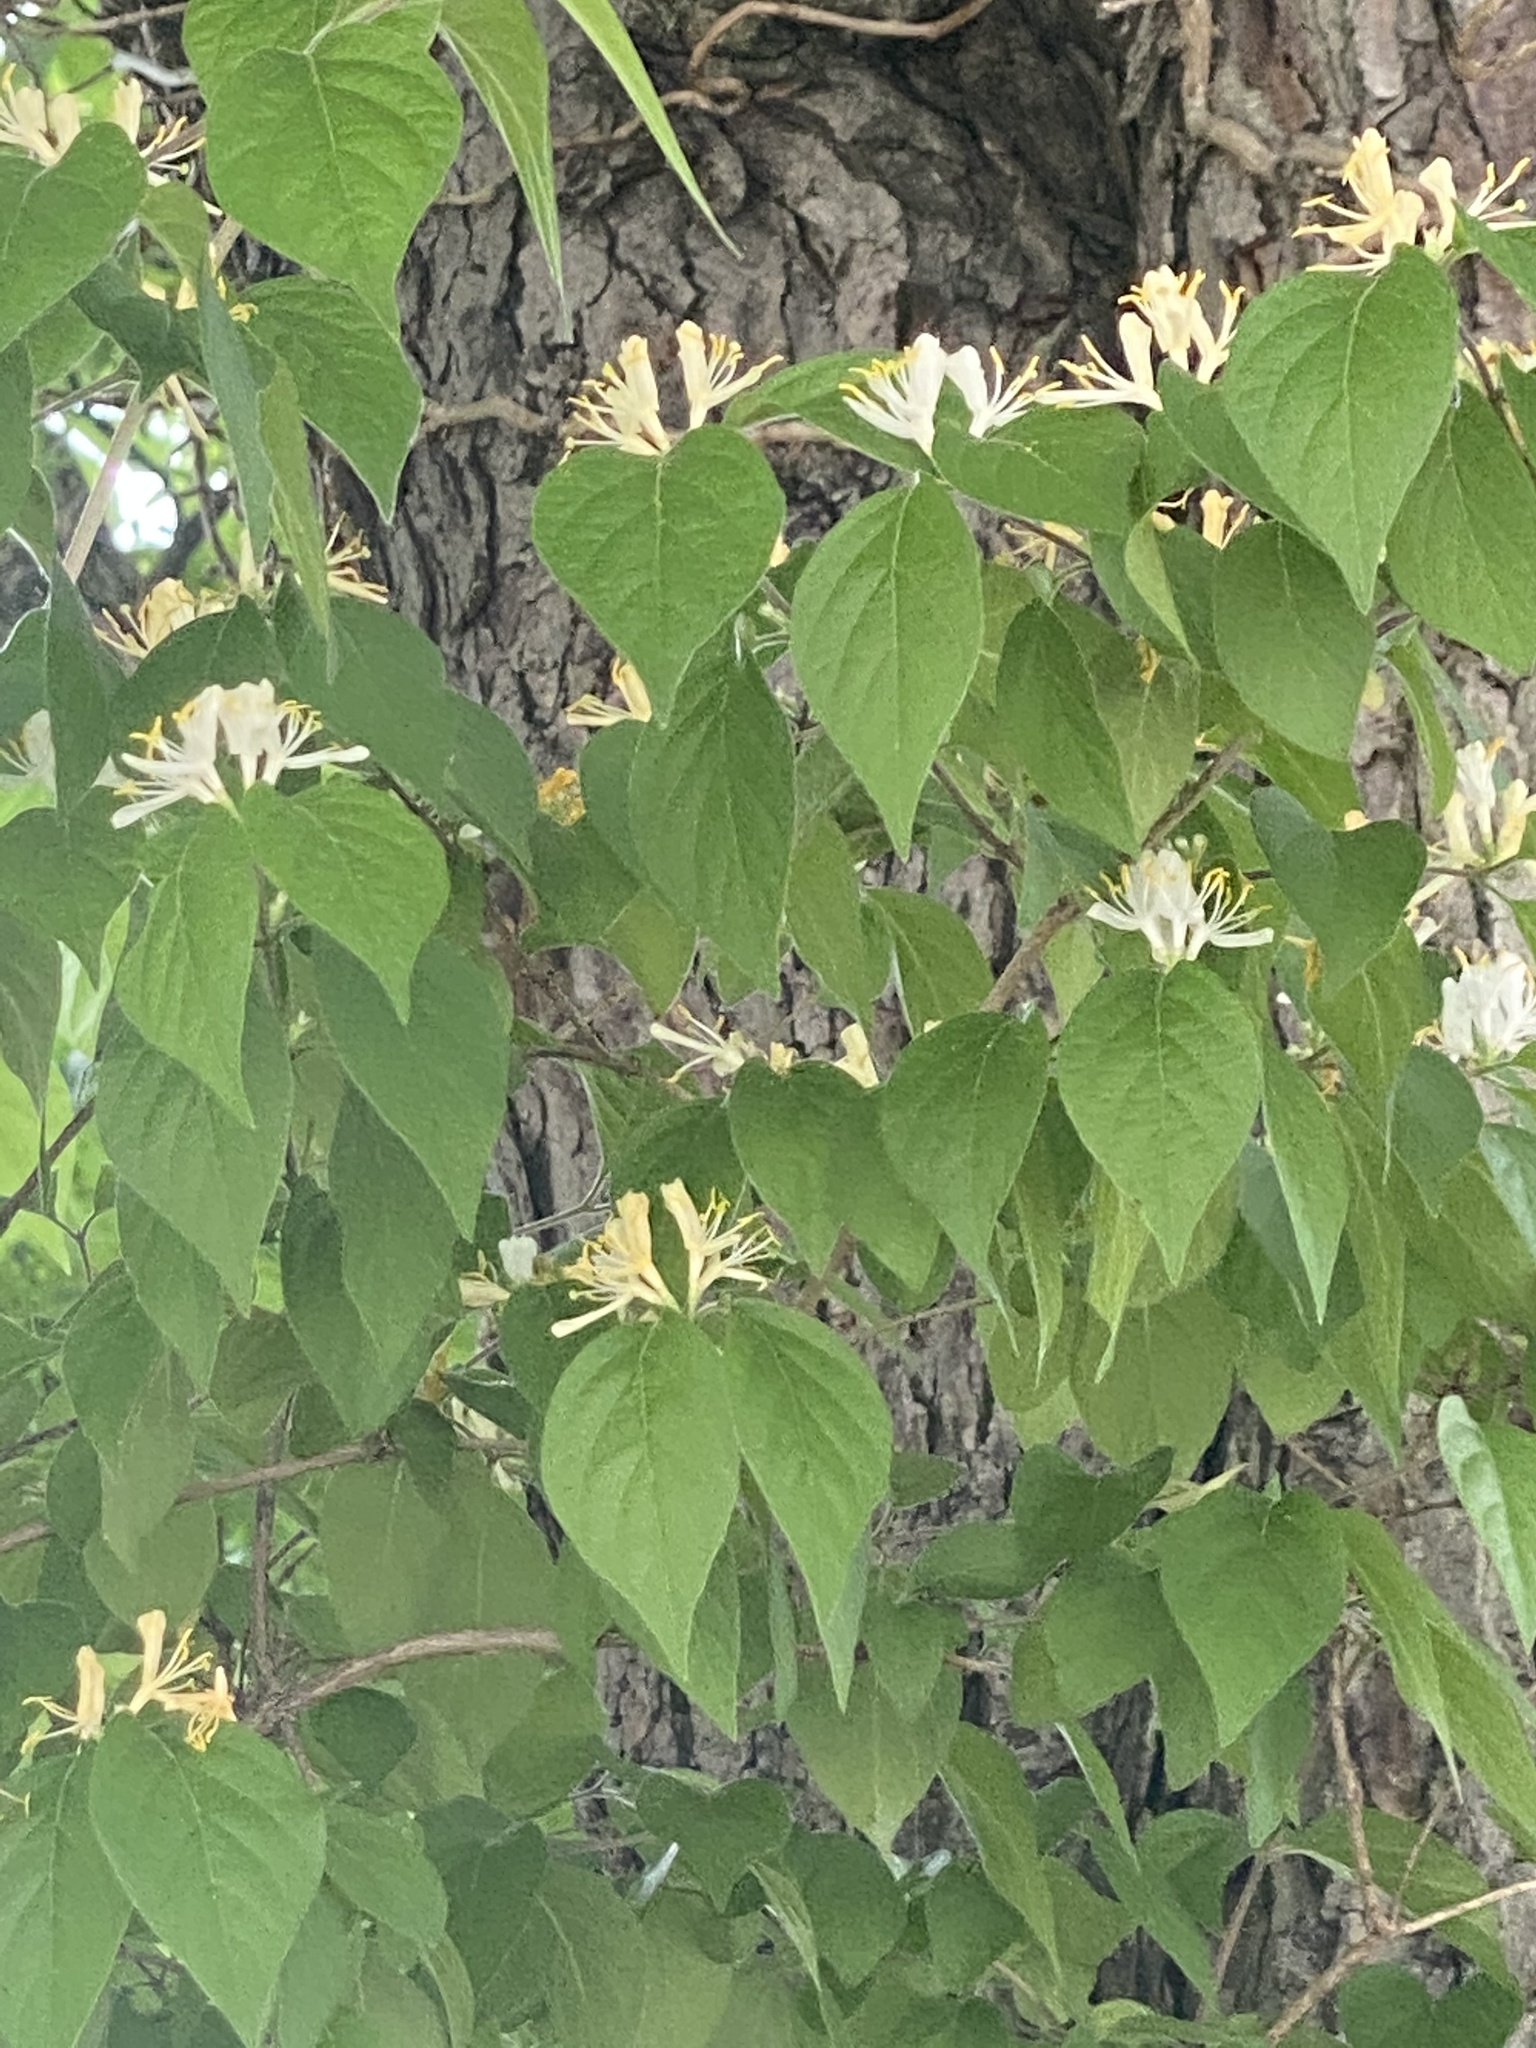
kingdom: Plantae
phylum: Tracheophyta
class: Magnoliopsida
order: Dipsacales
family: Caprifoliaceae
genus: Lonicera
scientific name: Lonicera maackii
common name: Amur honeysuckle
